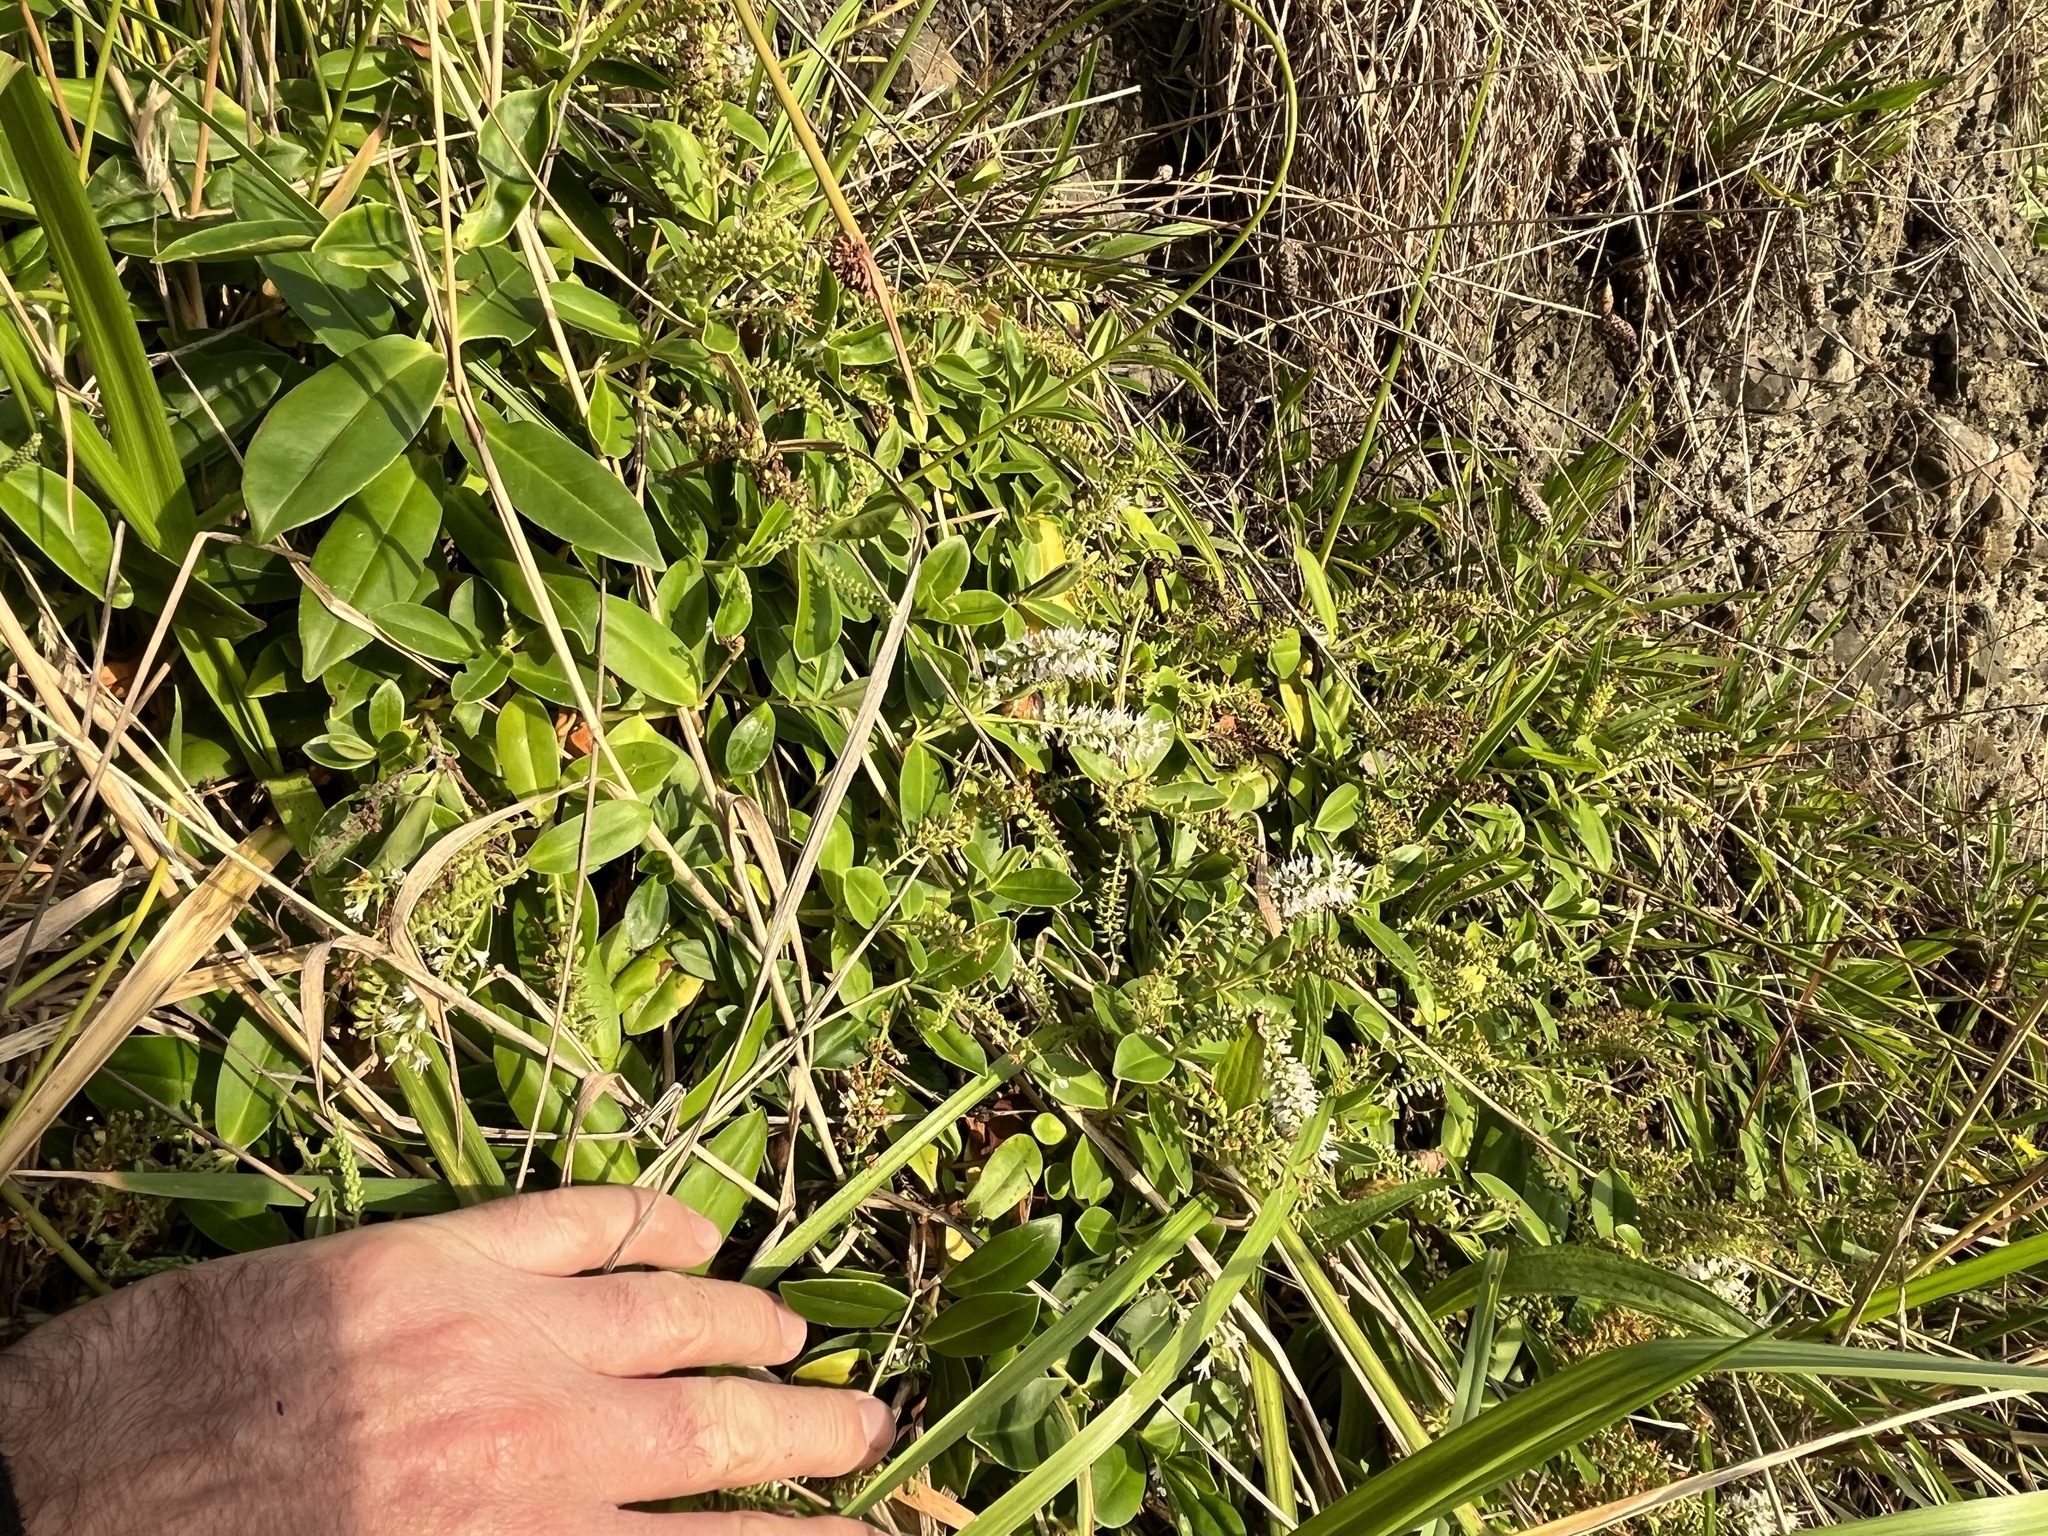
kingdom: Plantae
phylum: Tracheophyta
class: Magnoliopsida
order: Lamiales
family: Plantaginaceae
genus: Veronica
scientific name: Veronica stricta
